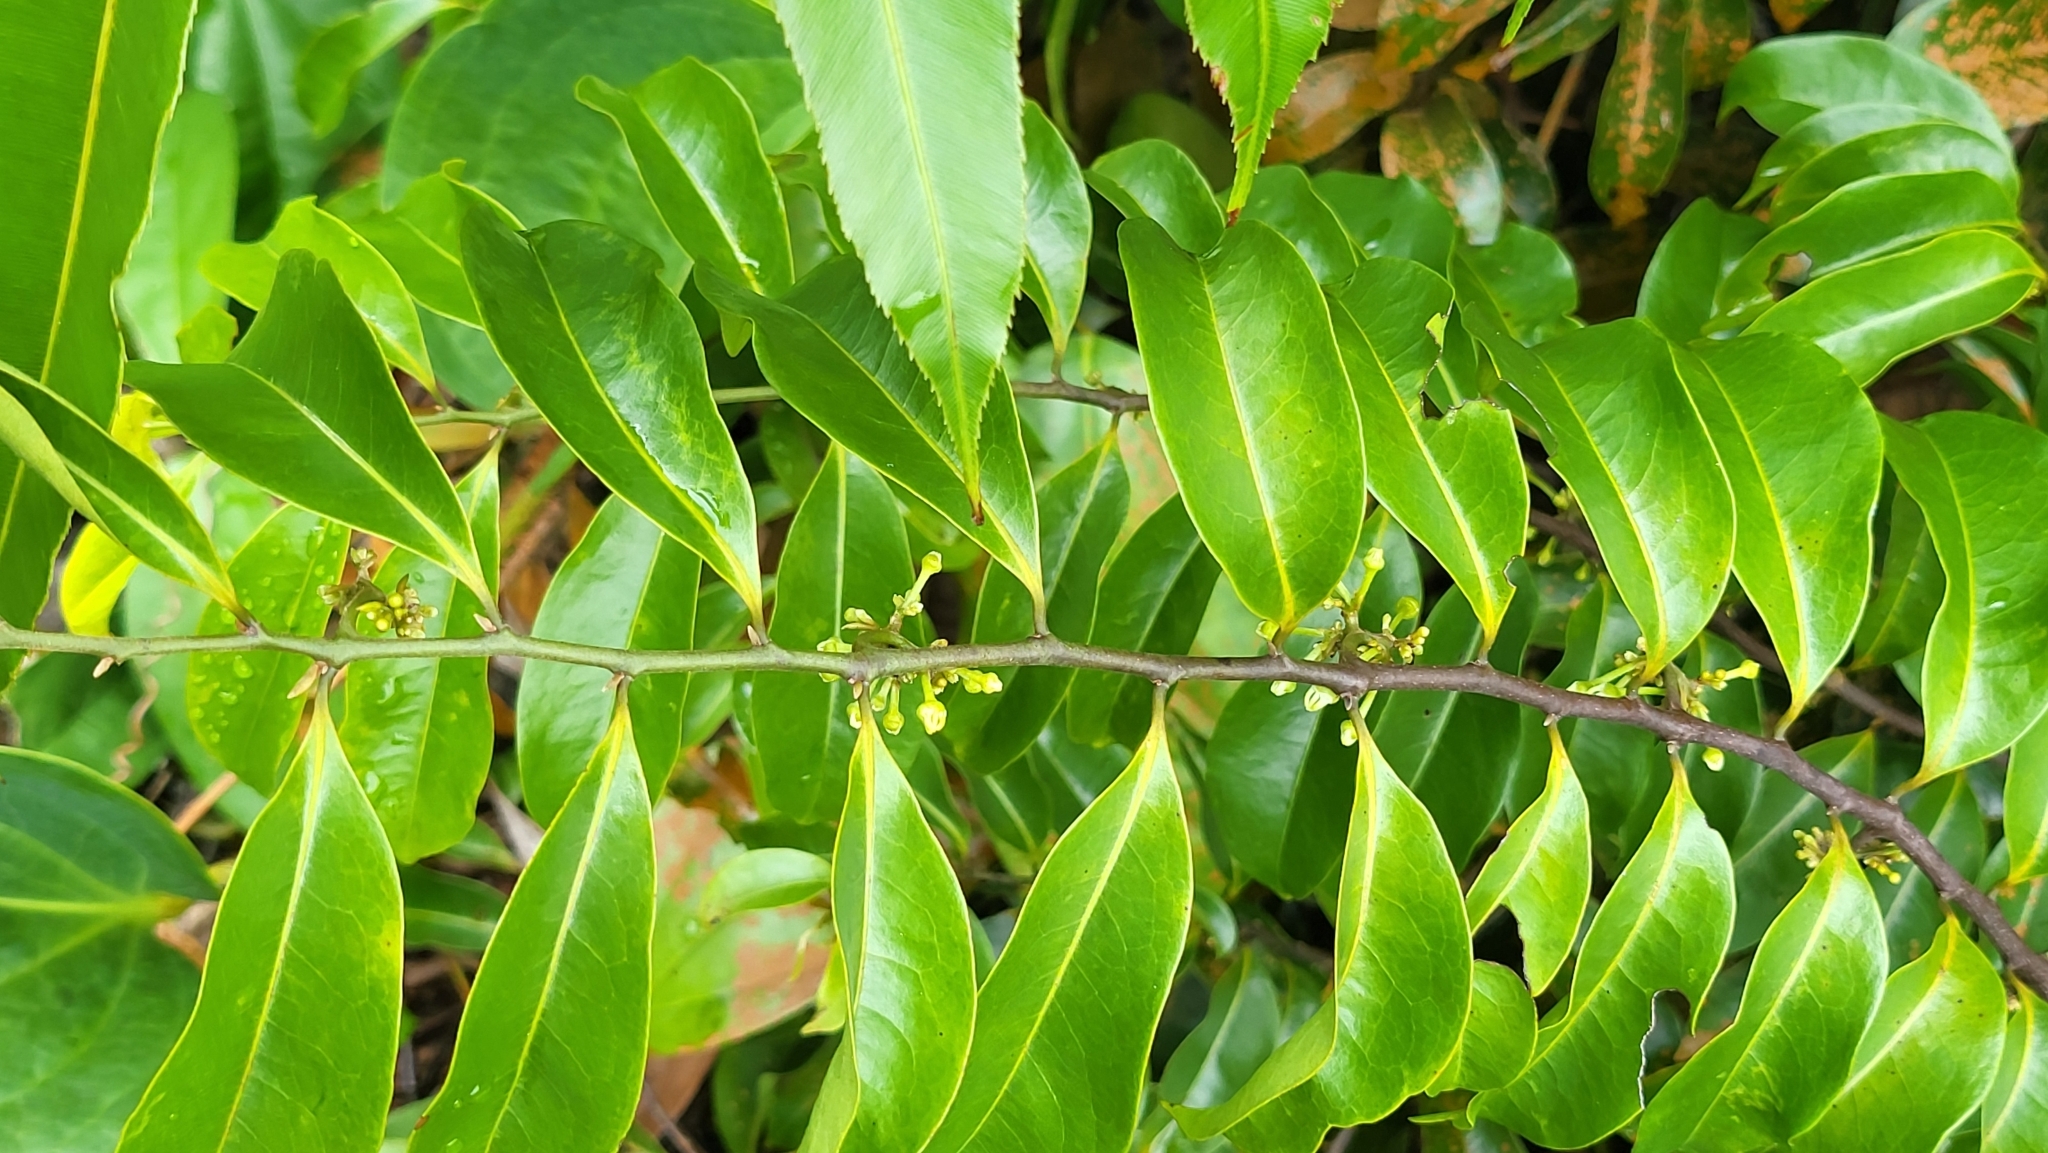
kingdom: Plantae
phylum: Tracheophyta
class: Magnoliopsida
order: Magnoliales
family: Annonaceae
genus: Artabotrys
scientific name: Artabotrys suaveolens
